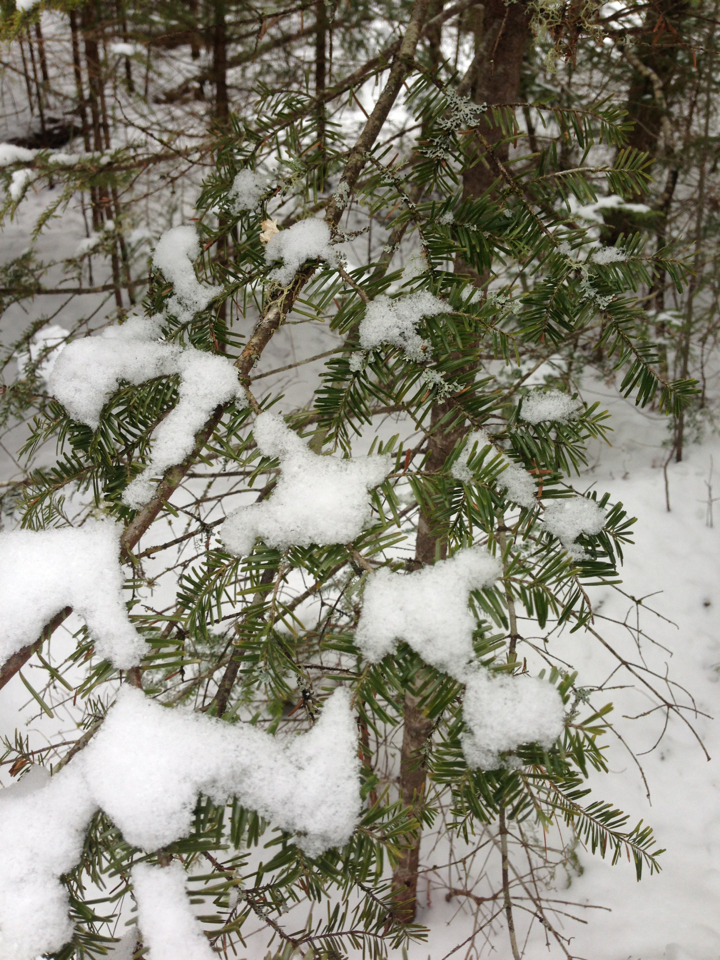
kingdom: Plantae
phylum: Tracheophyta
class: Pinopsida
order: Pinales
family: Pinaceae
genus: Abies
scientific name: Abies balsamea
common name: Balsam fir
